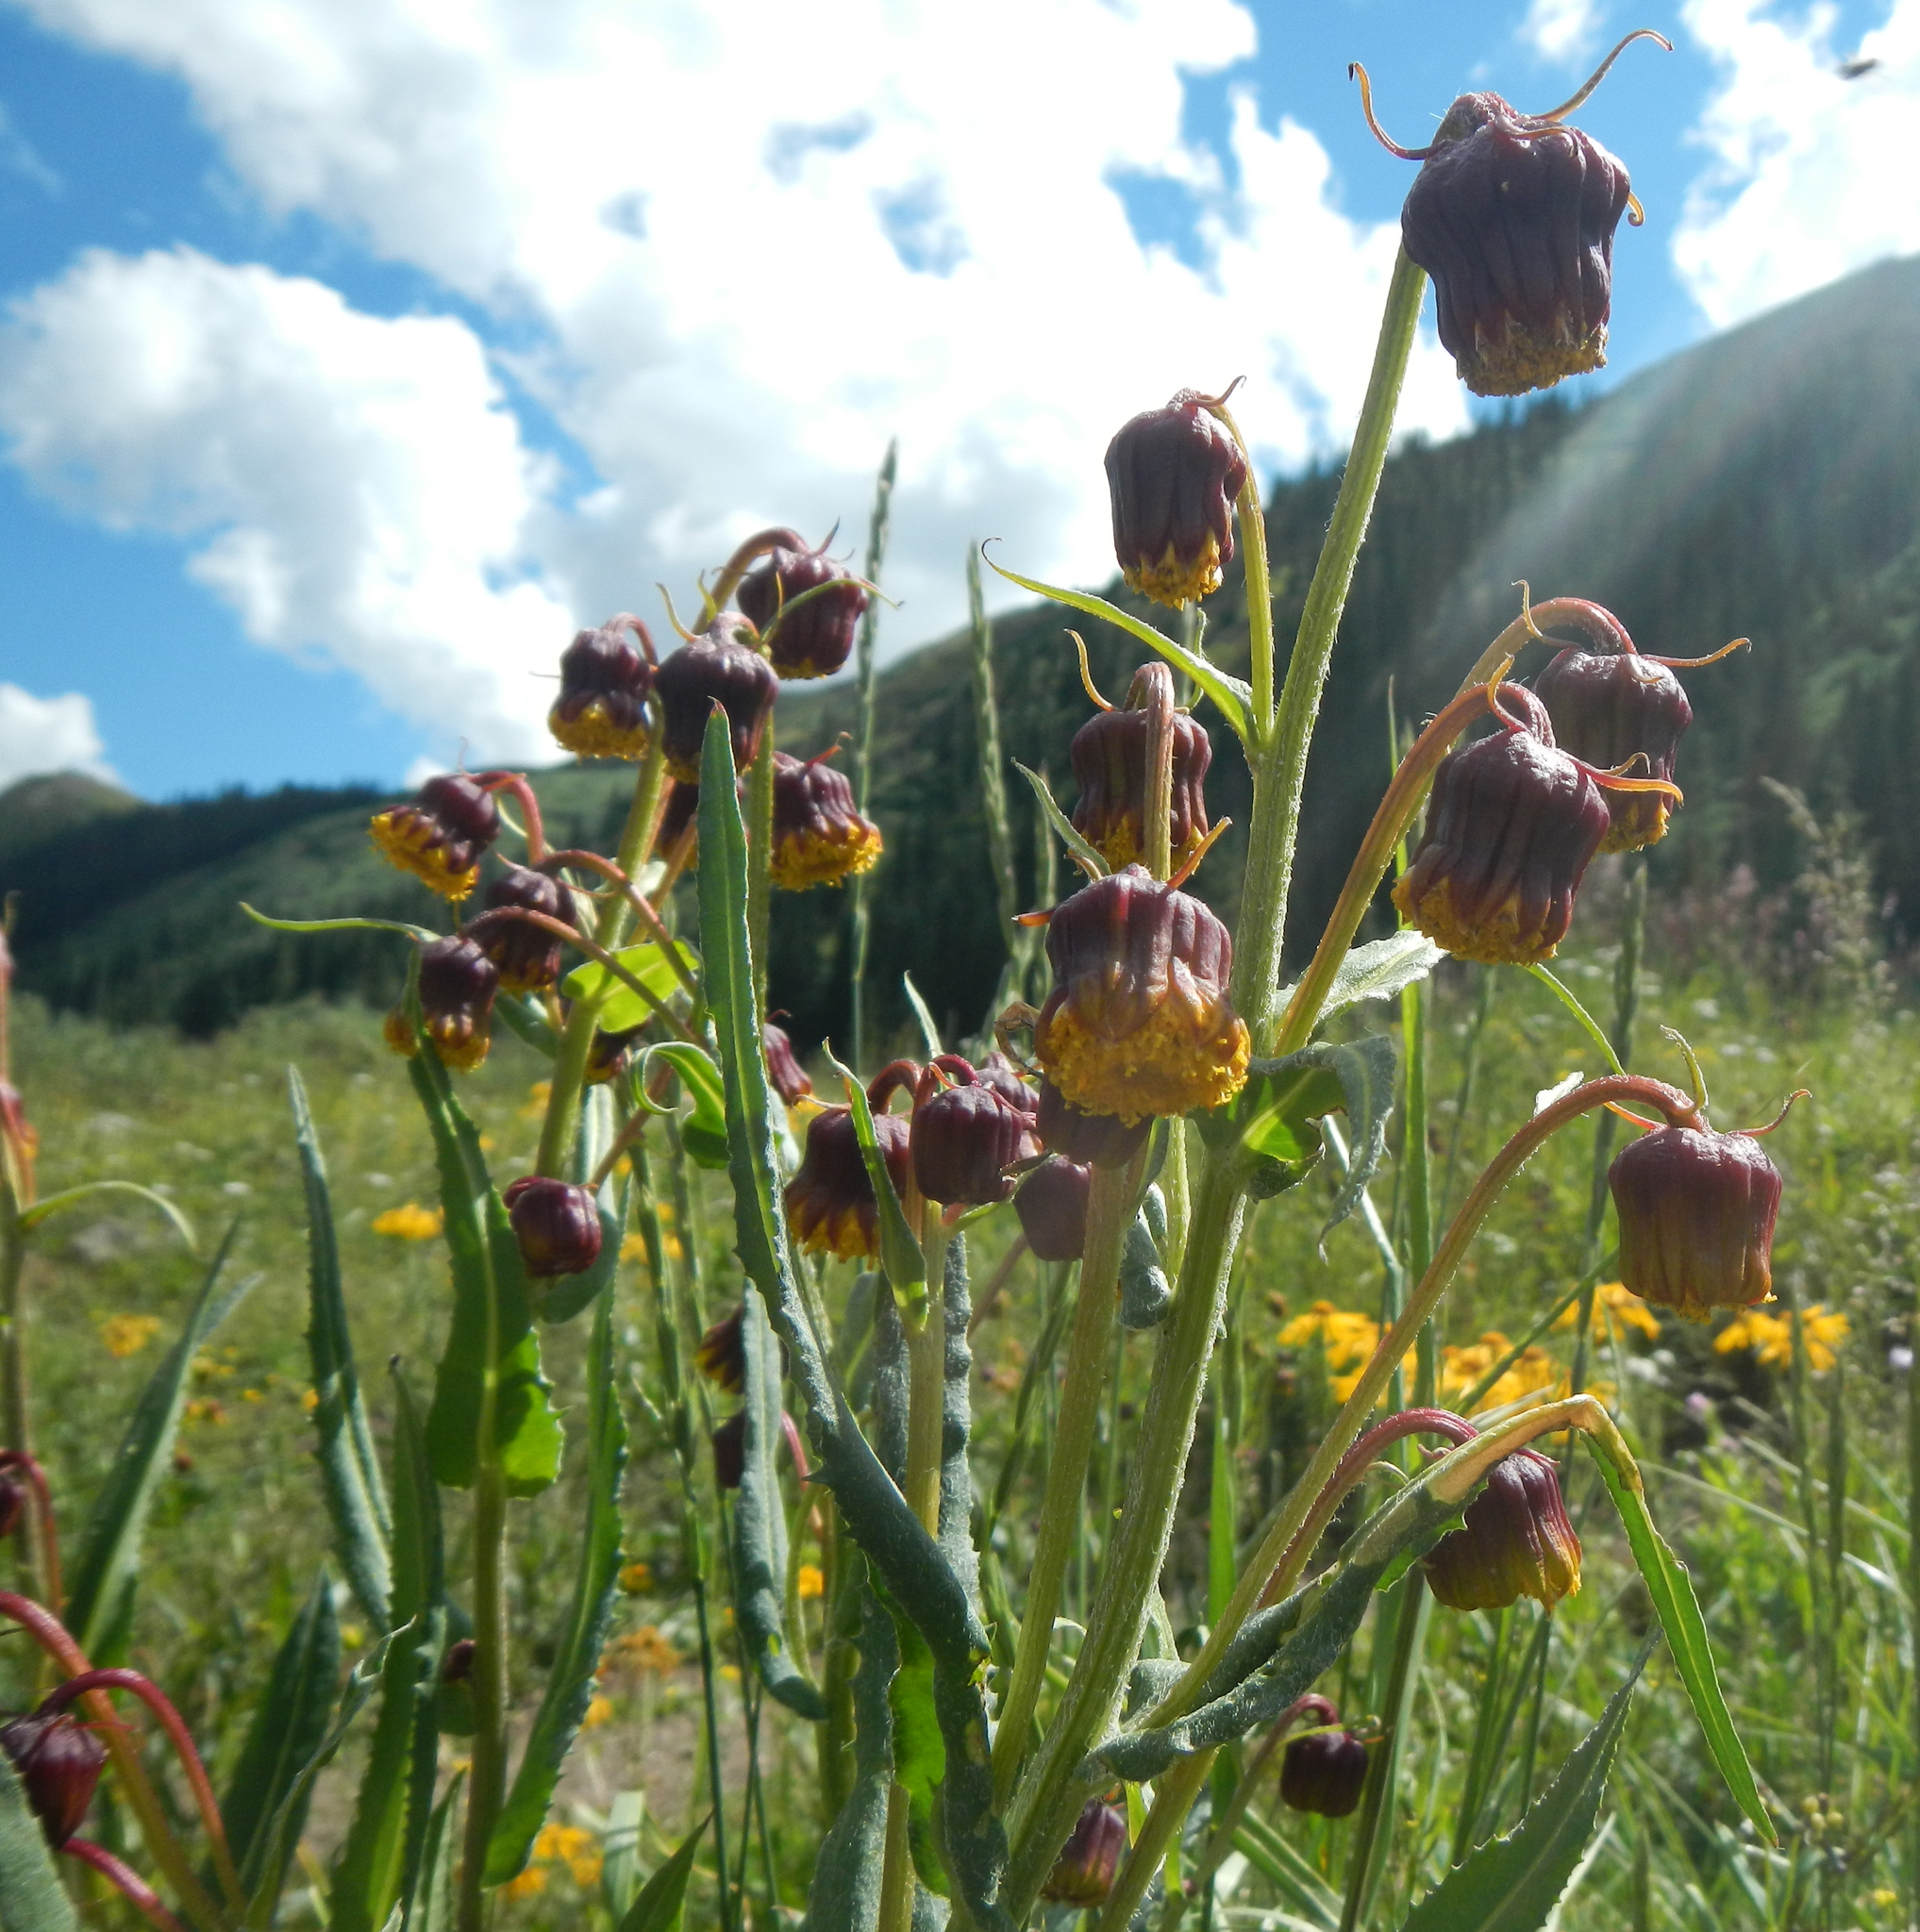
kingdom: Plantae
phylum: Tracheophyta
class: Magnoliopsida
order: Asterales
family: Asteraceae
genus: Senecio
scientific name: Senecio bigelovii
